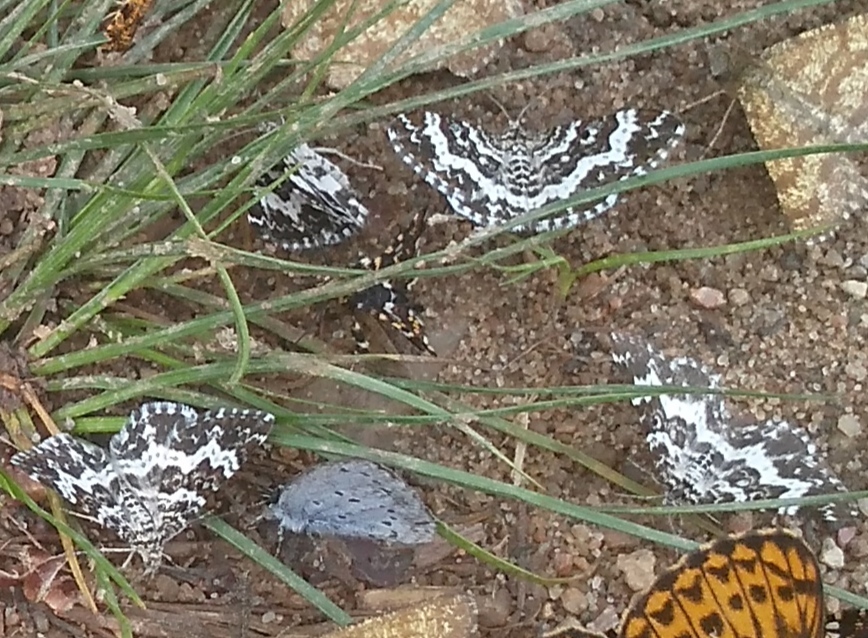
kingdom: Animalia
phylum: Arthropoda
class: Insecta
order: Lepidoptera
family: Geometridae
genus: Rheumaptera
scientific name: Rheumaptera hastata
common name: Argent & sable
